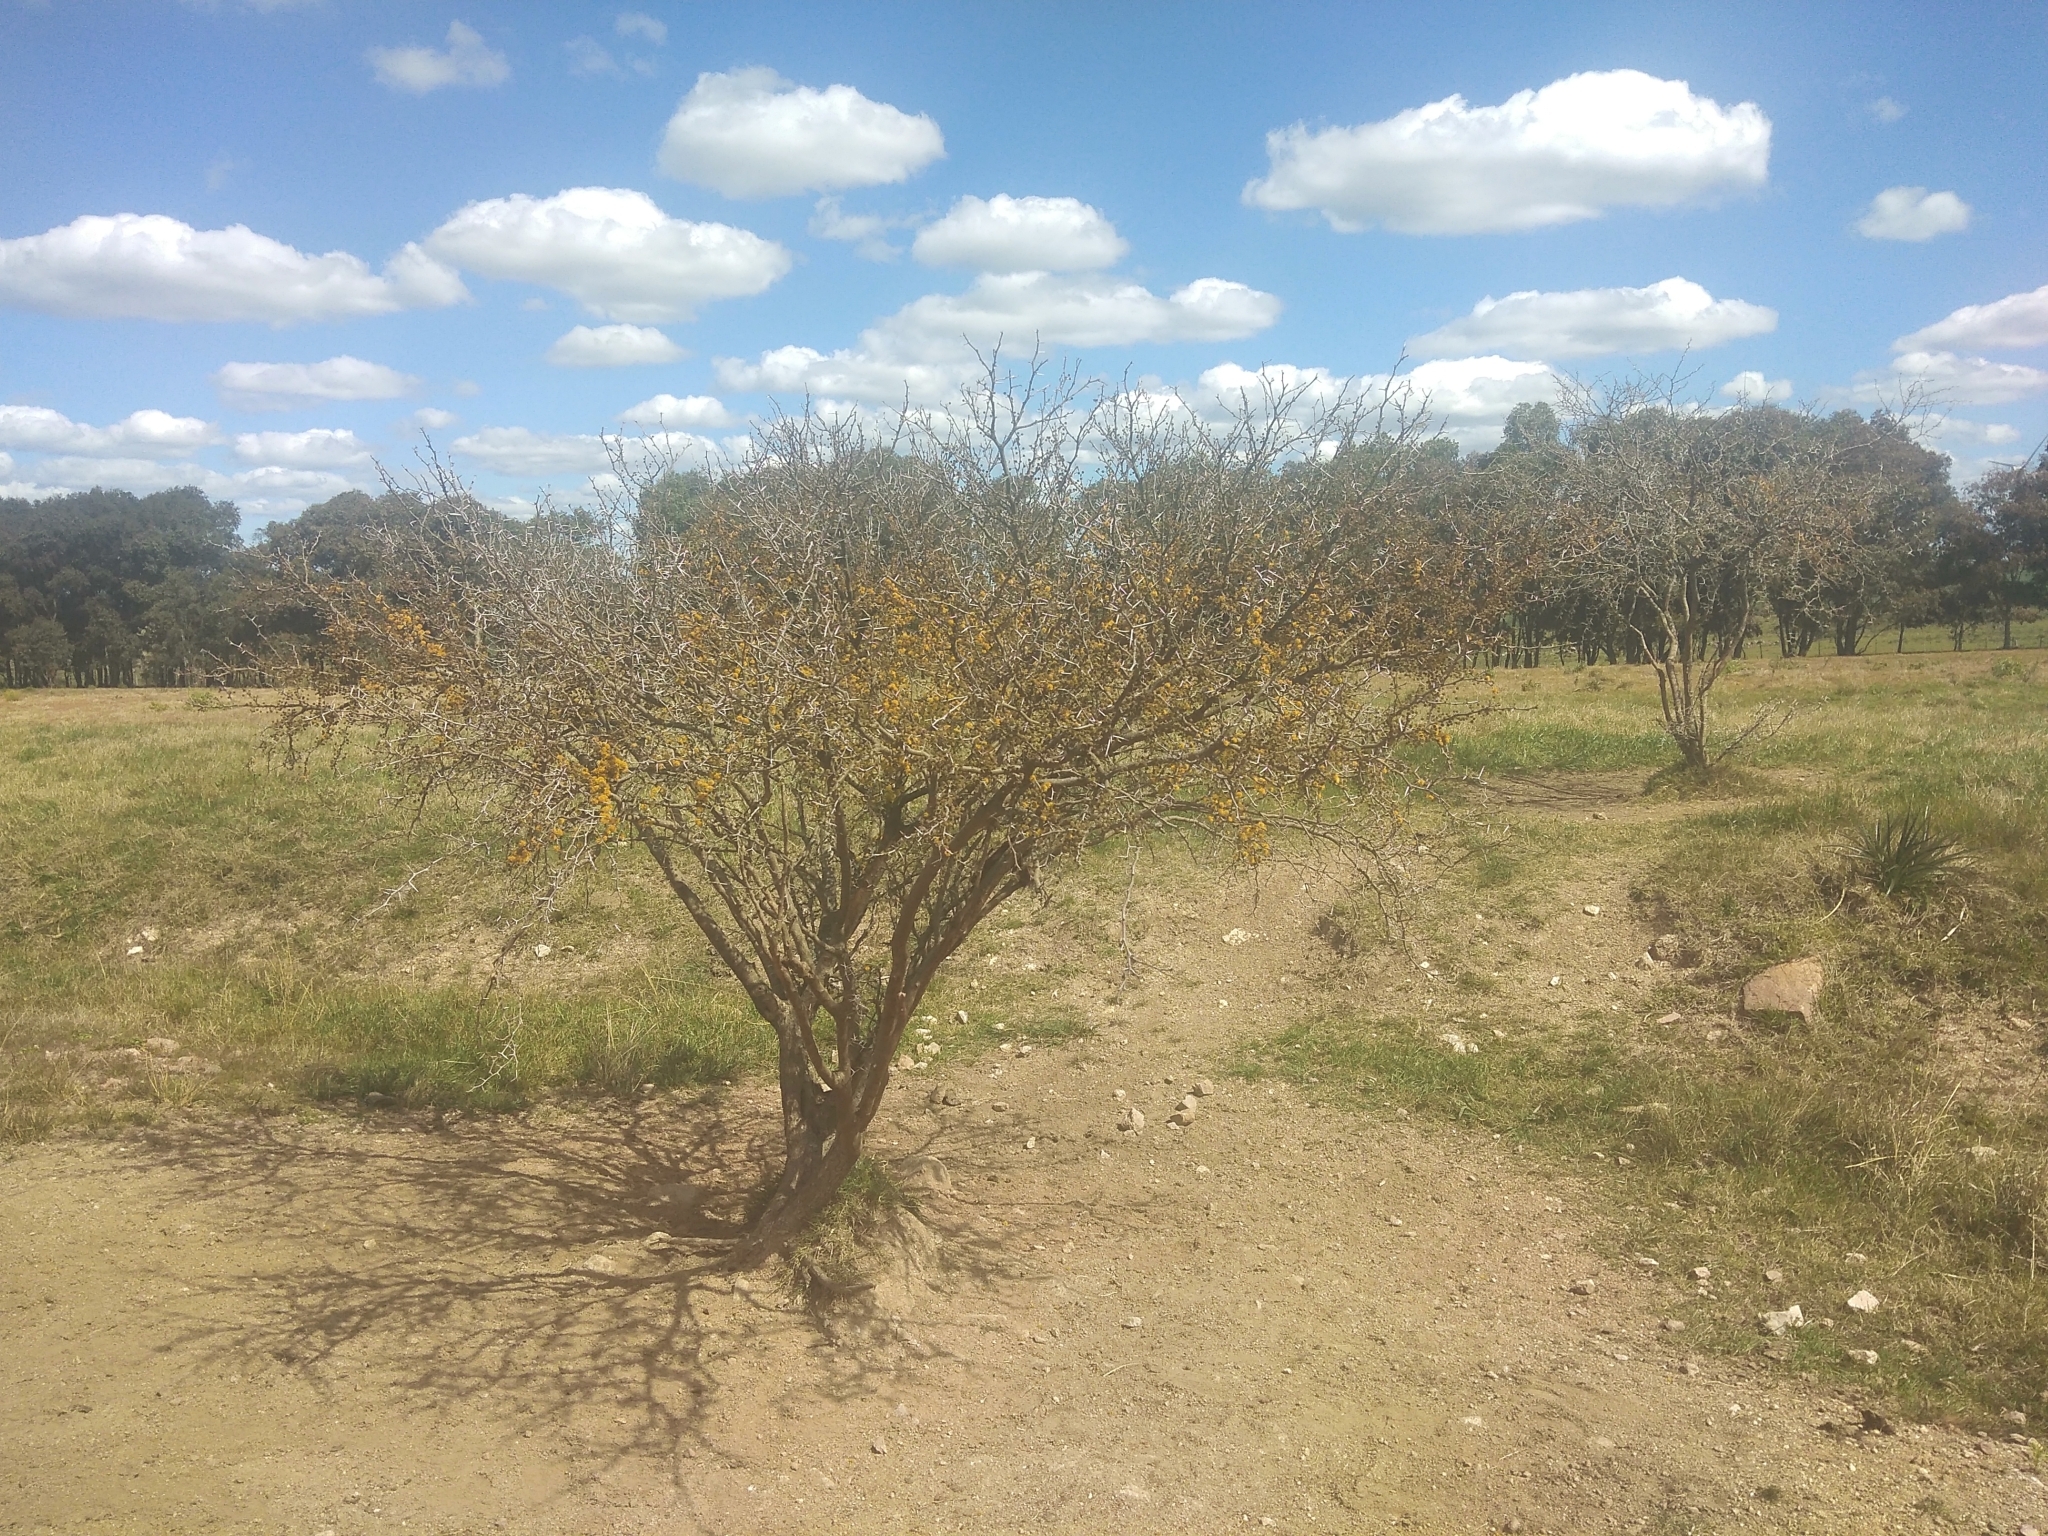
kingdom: Plantae
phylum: Tracheophyta
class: Magnoliopsida
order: Fabales
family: Fabaceae
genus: Vachellia
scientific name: Vachellia caven
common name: Roman cassie
